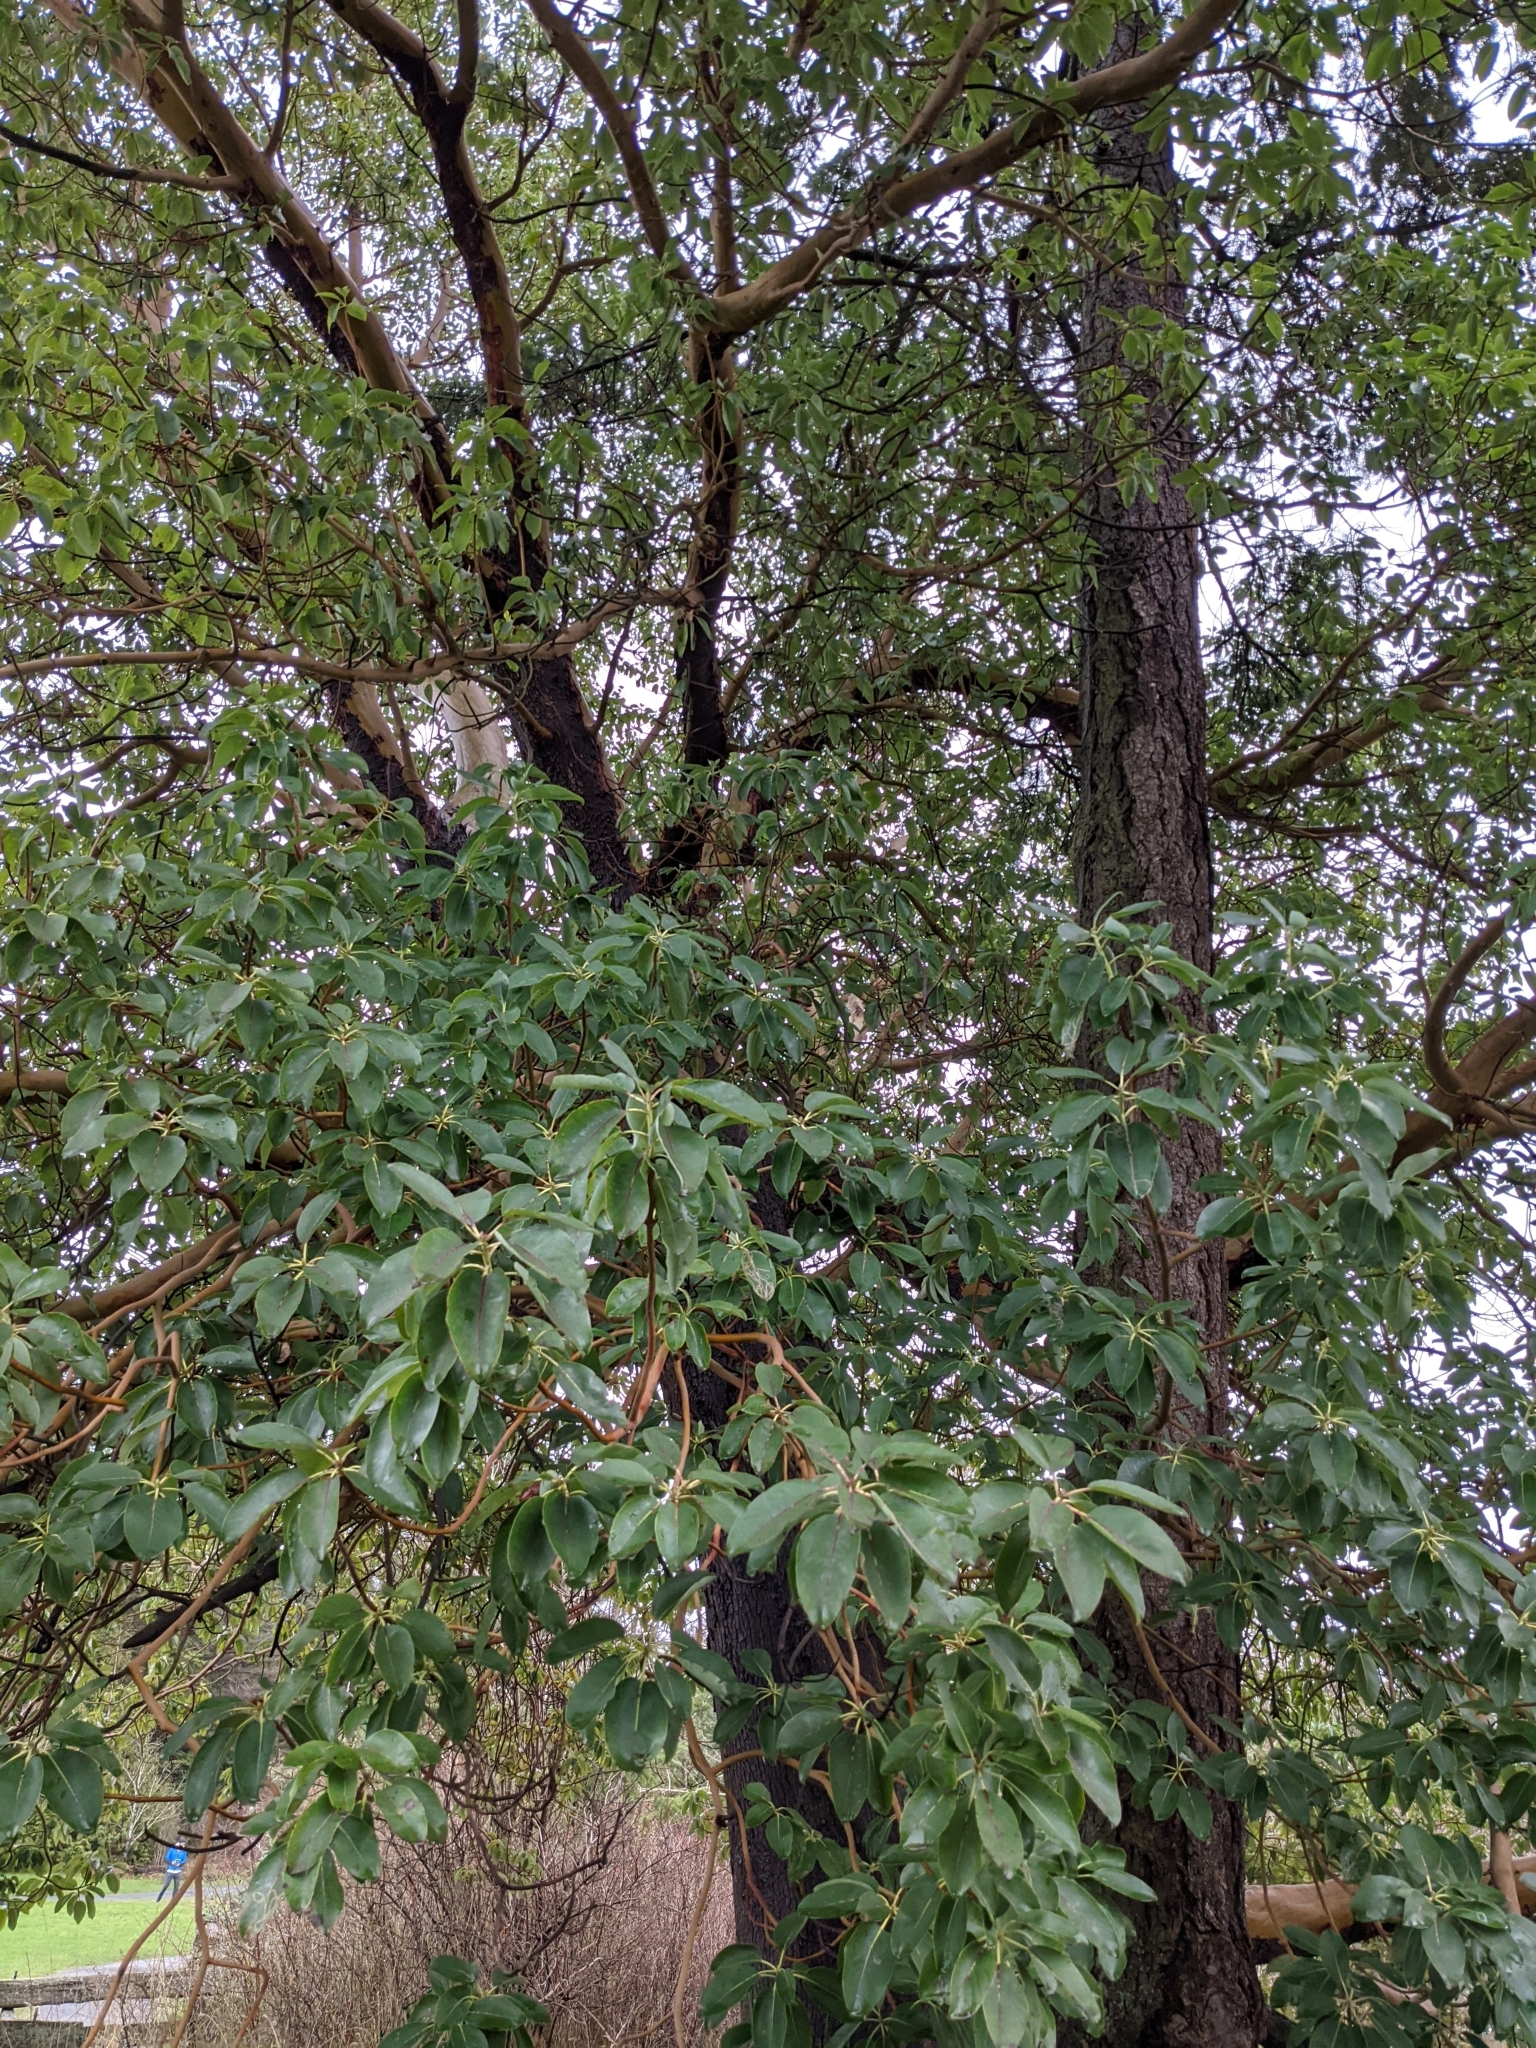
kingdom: Plantae
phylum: Tracheophyta
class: Magnoliopsida
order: Ericales
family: Ericaceae
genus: Arbutus
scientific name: Arbutus menziesii
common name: Pacific madrone
